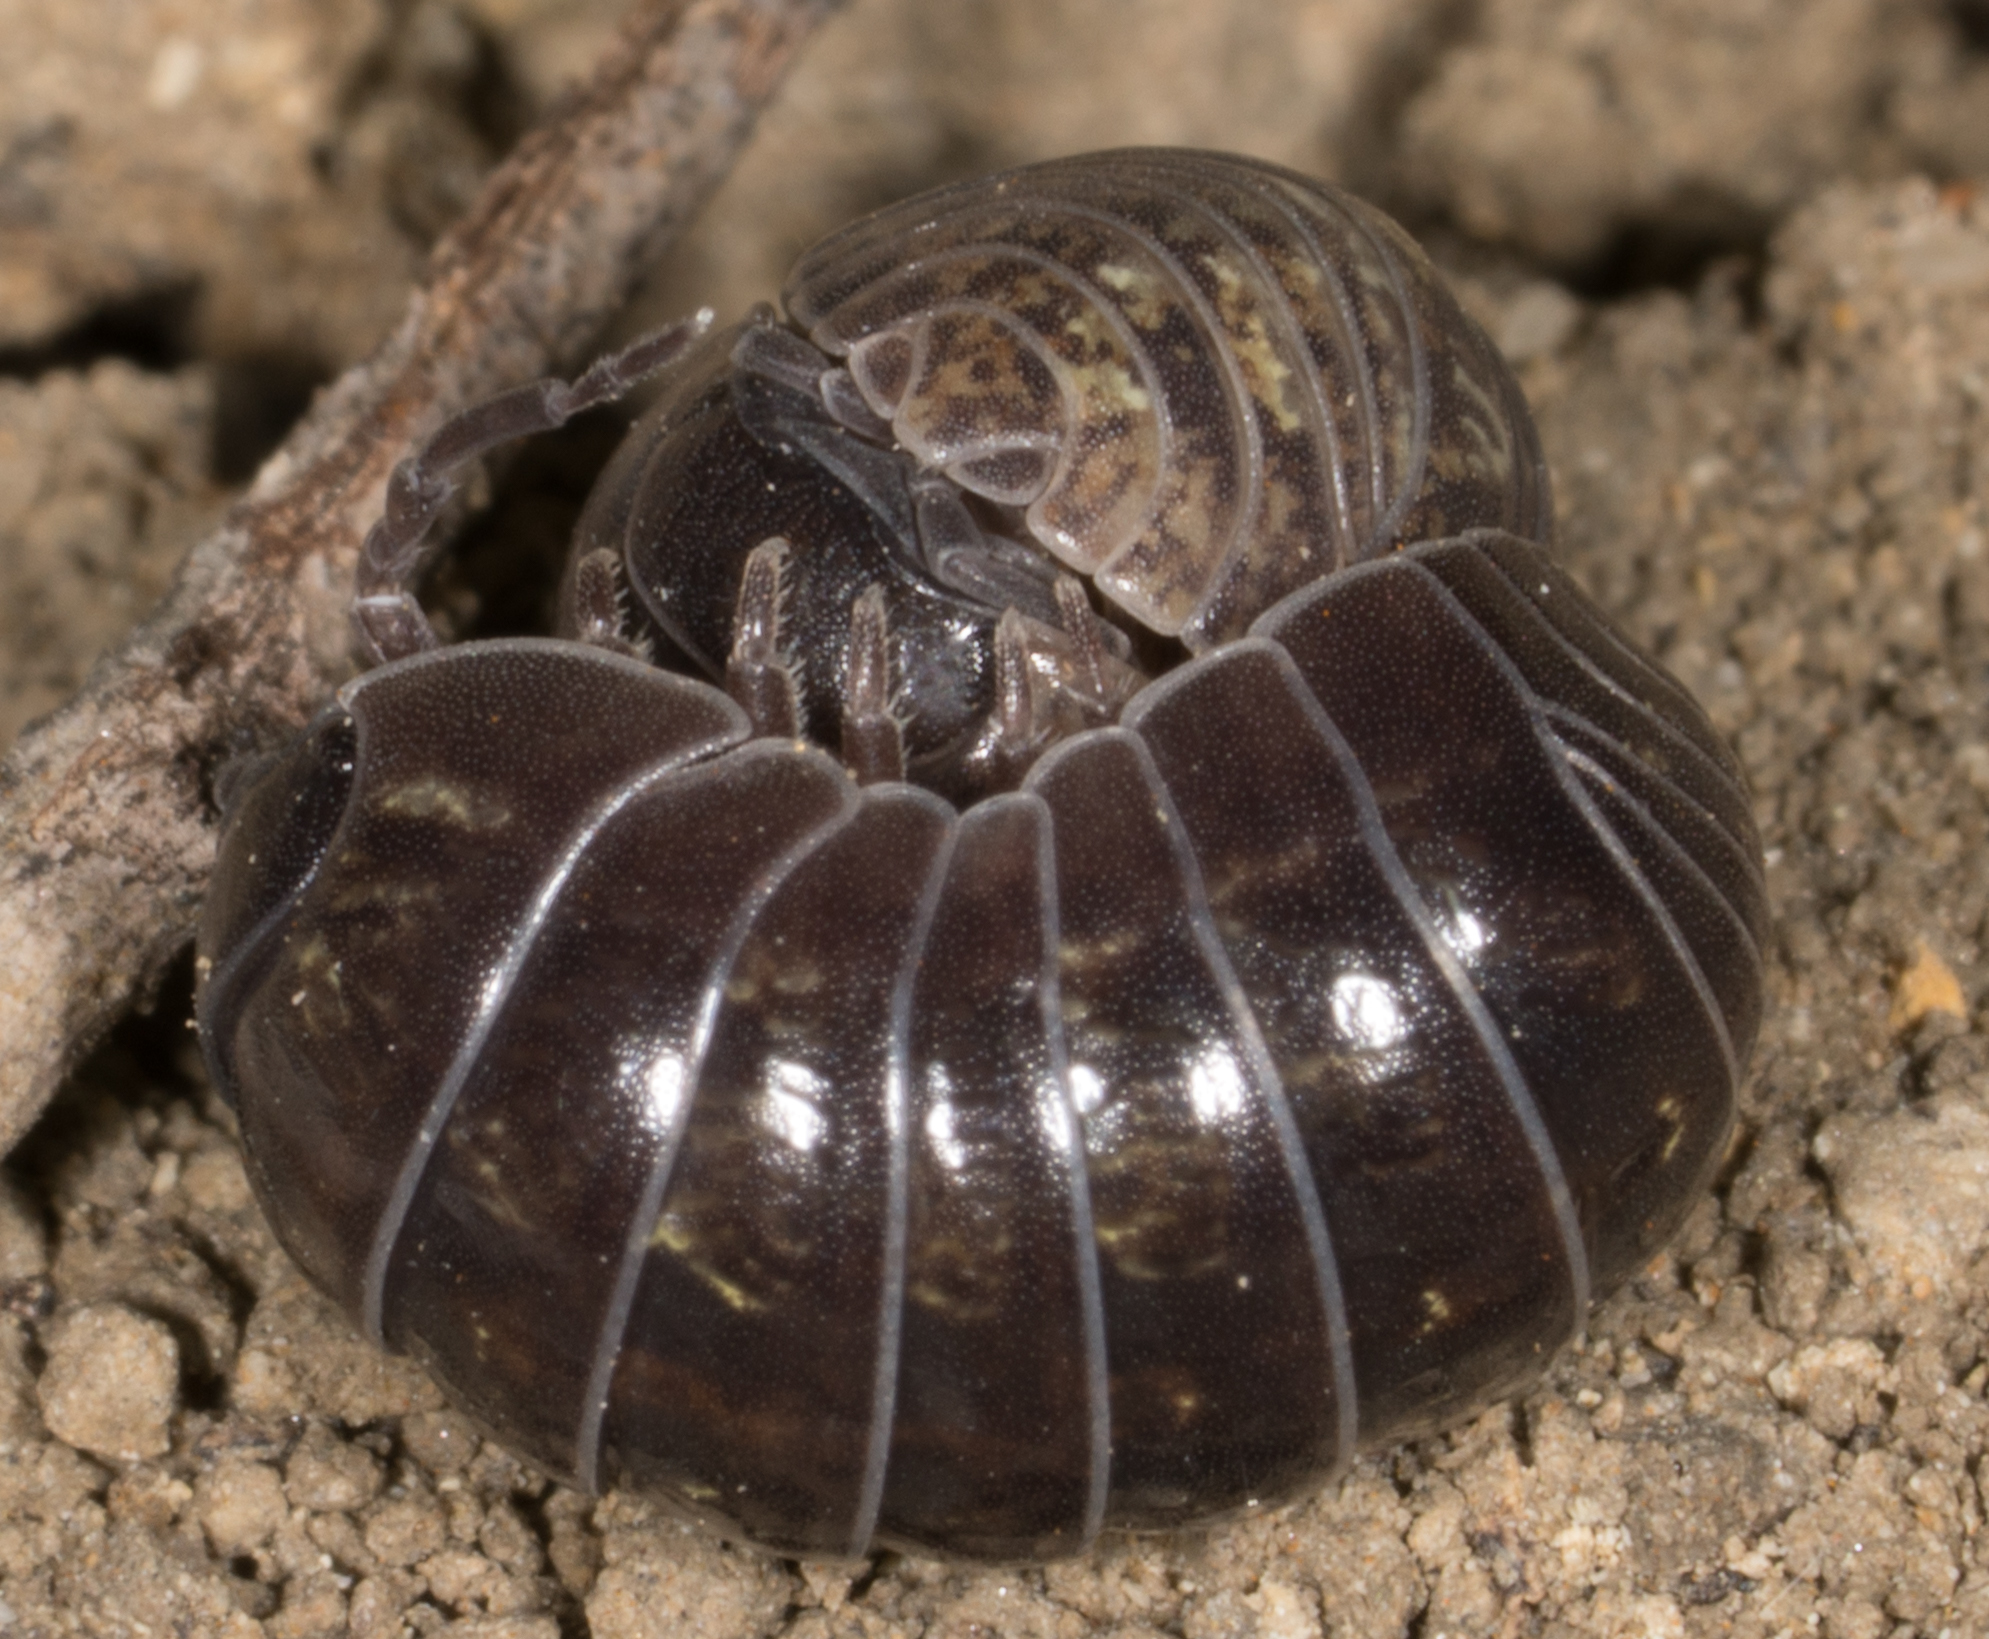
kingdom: Animalia
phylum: Arthropoda
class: Malacostraca
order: Isopoda
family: Armadillidiidae
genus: Armadillidium
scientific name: Armadillidium vulgare
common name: Common pill woodlouse
